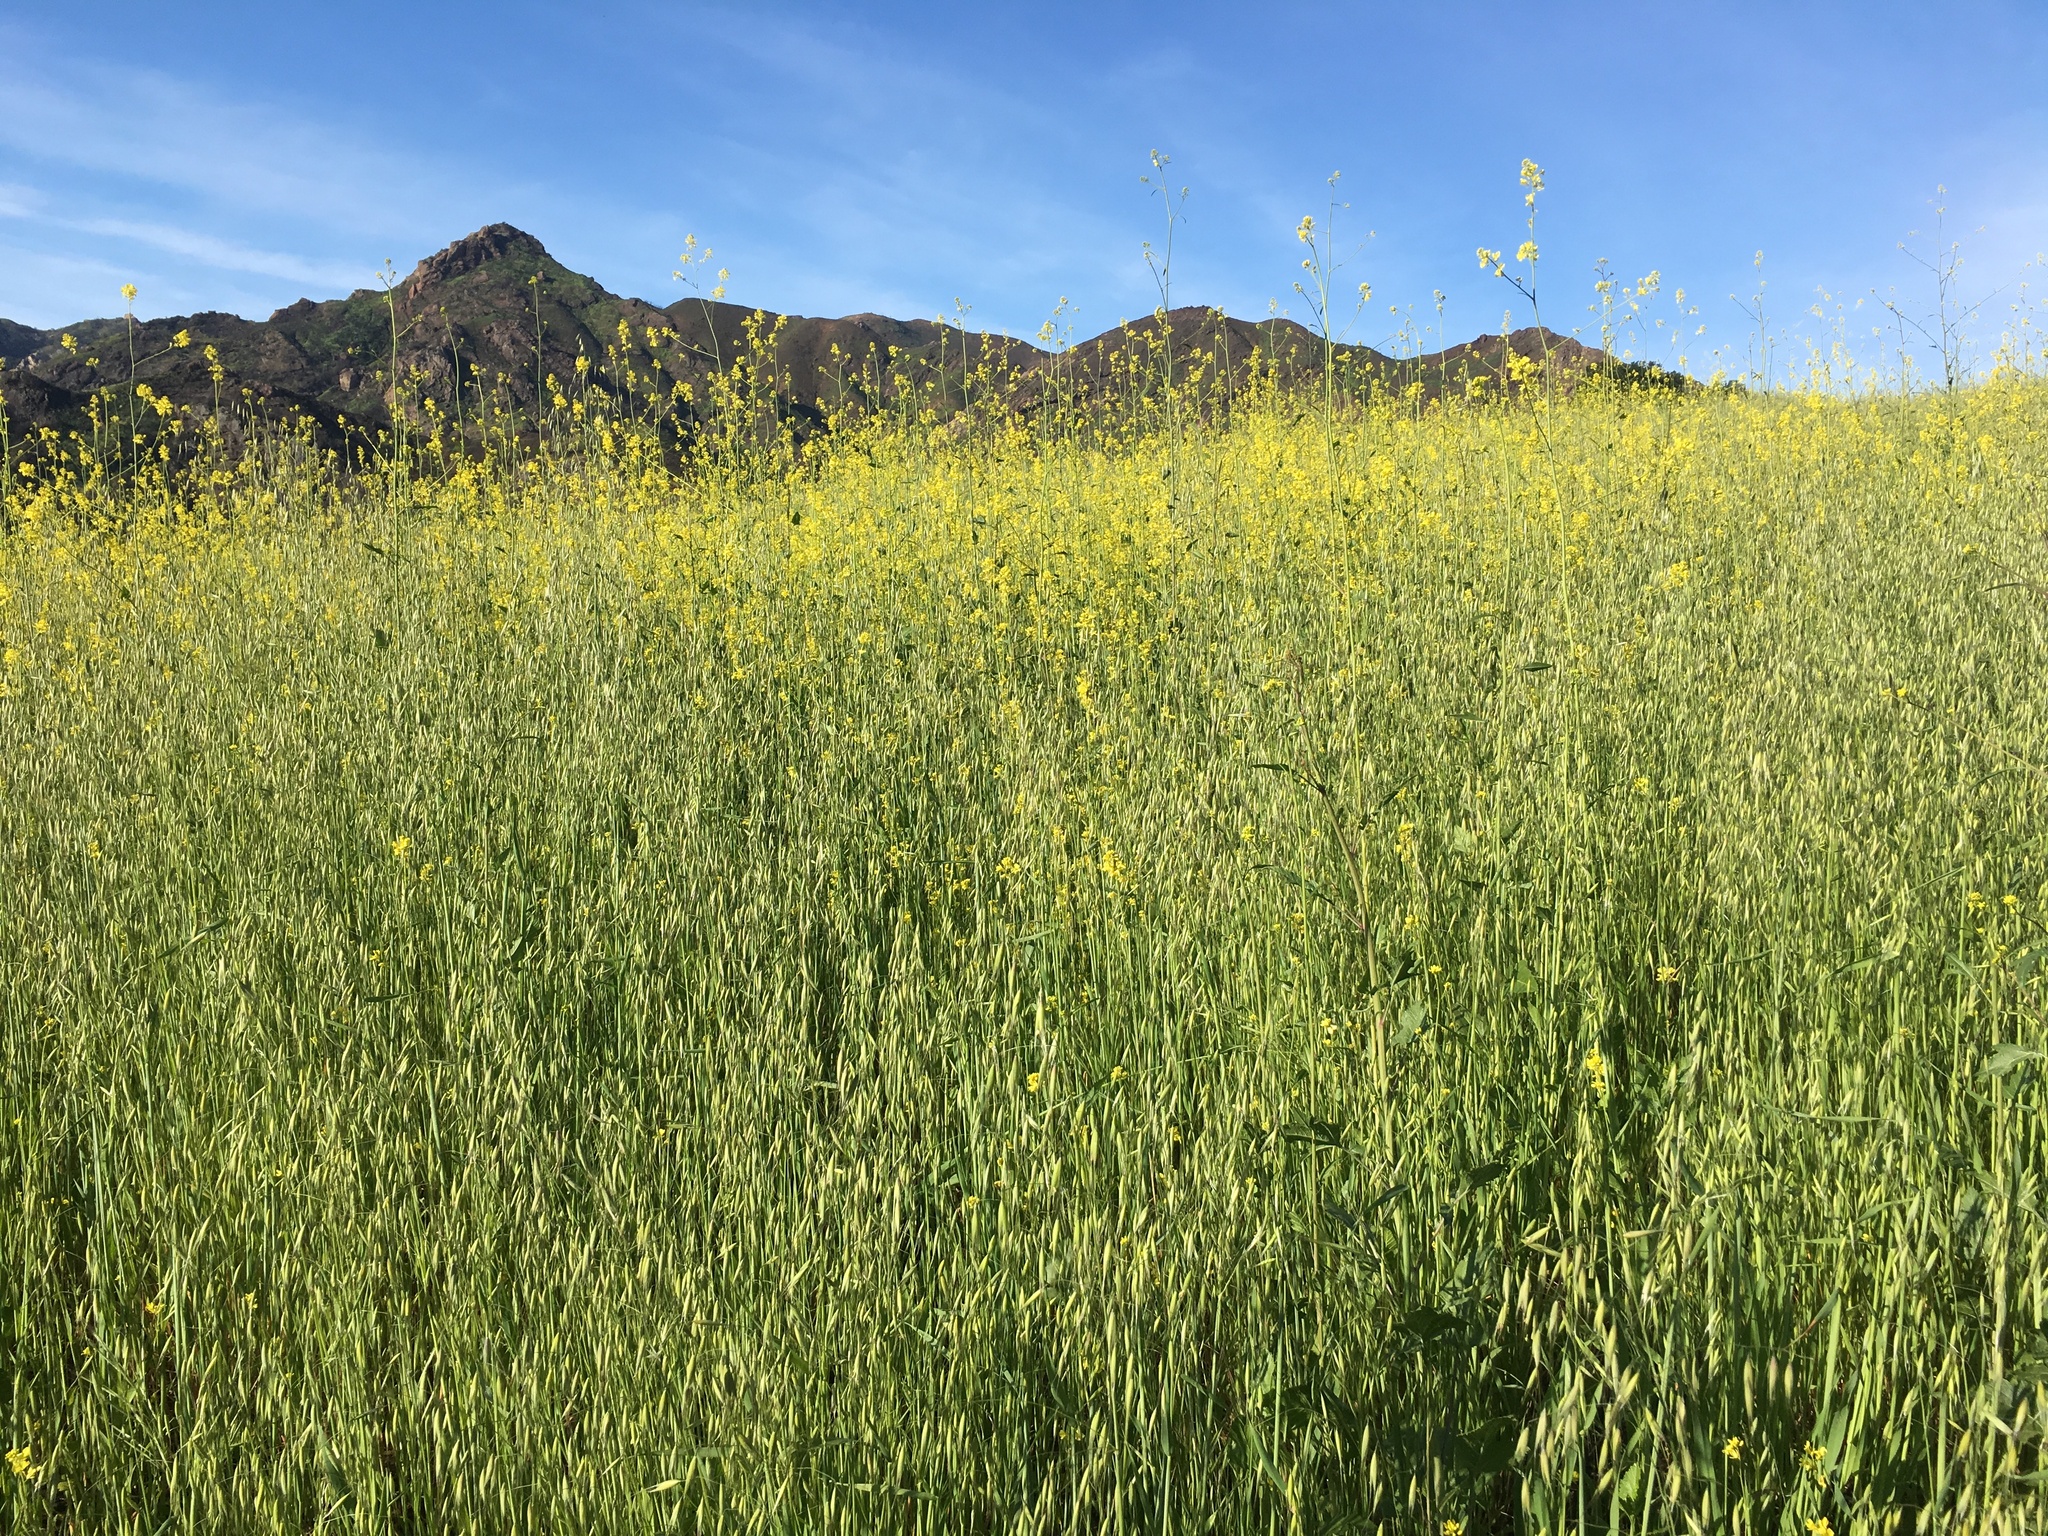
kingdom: Plantae
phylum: Tracheophyta
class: Magnoliopsida
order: Brassicales
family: Brassicaceae
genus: Brassica
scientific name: Brassica nigra
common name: Black mustard
